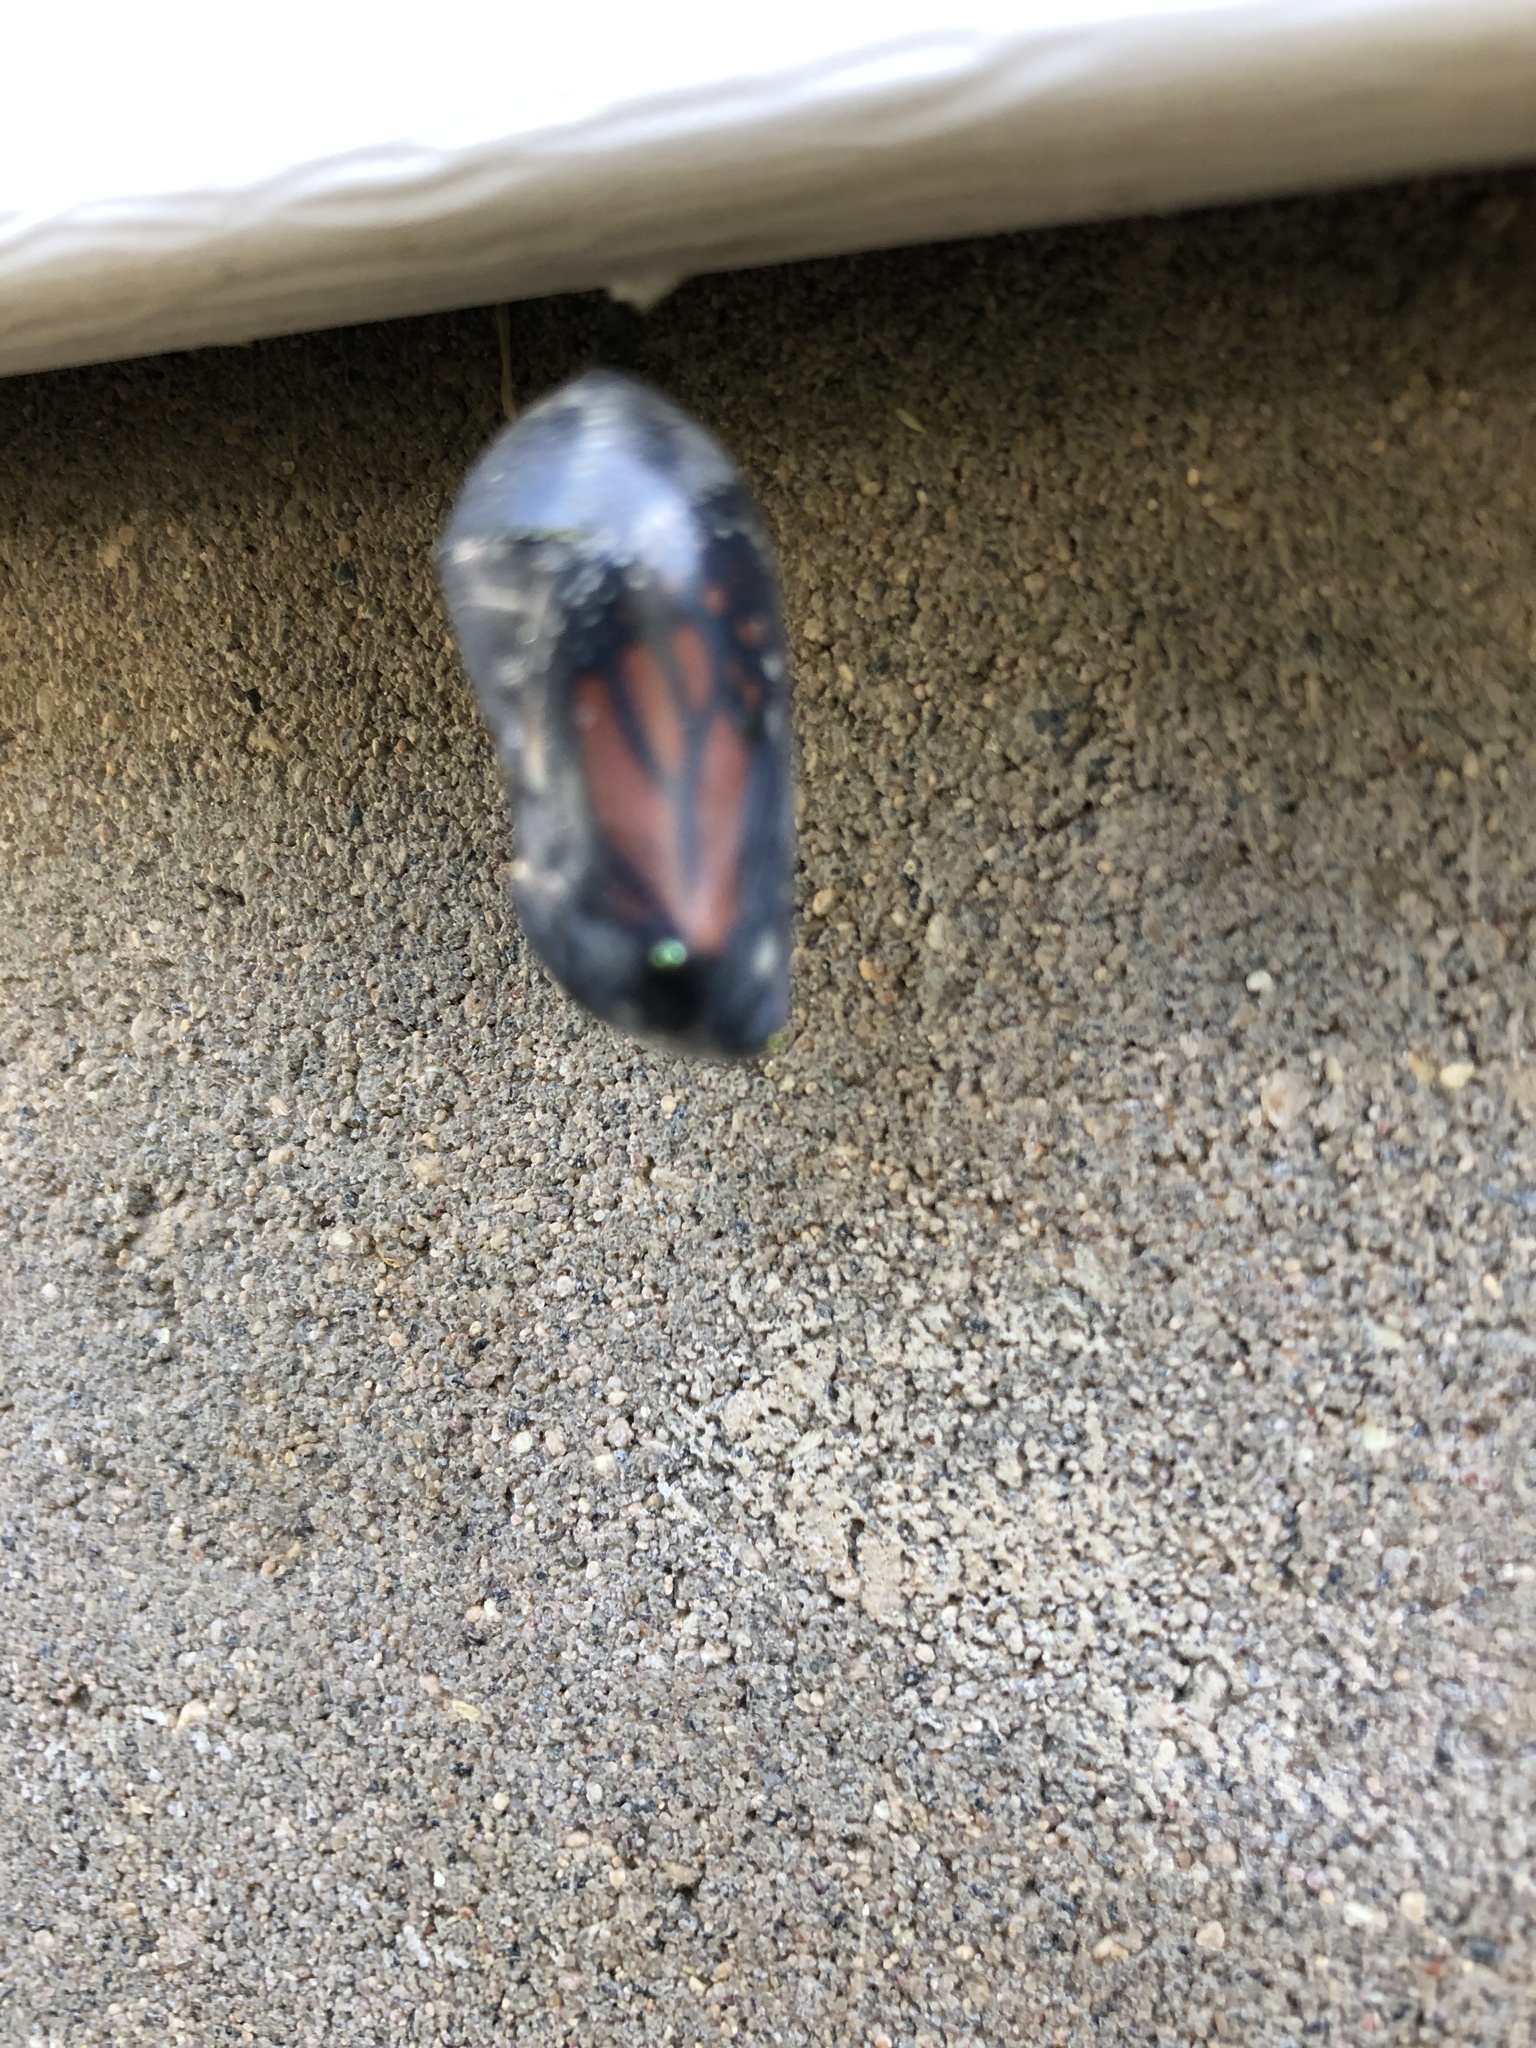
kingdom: Animalia
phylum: Arthropoda
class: Insecta
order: Lepidoptera
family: Nymphalidae
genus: Danaus
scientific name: Danaus plexippus
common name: Monarch
